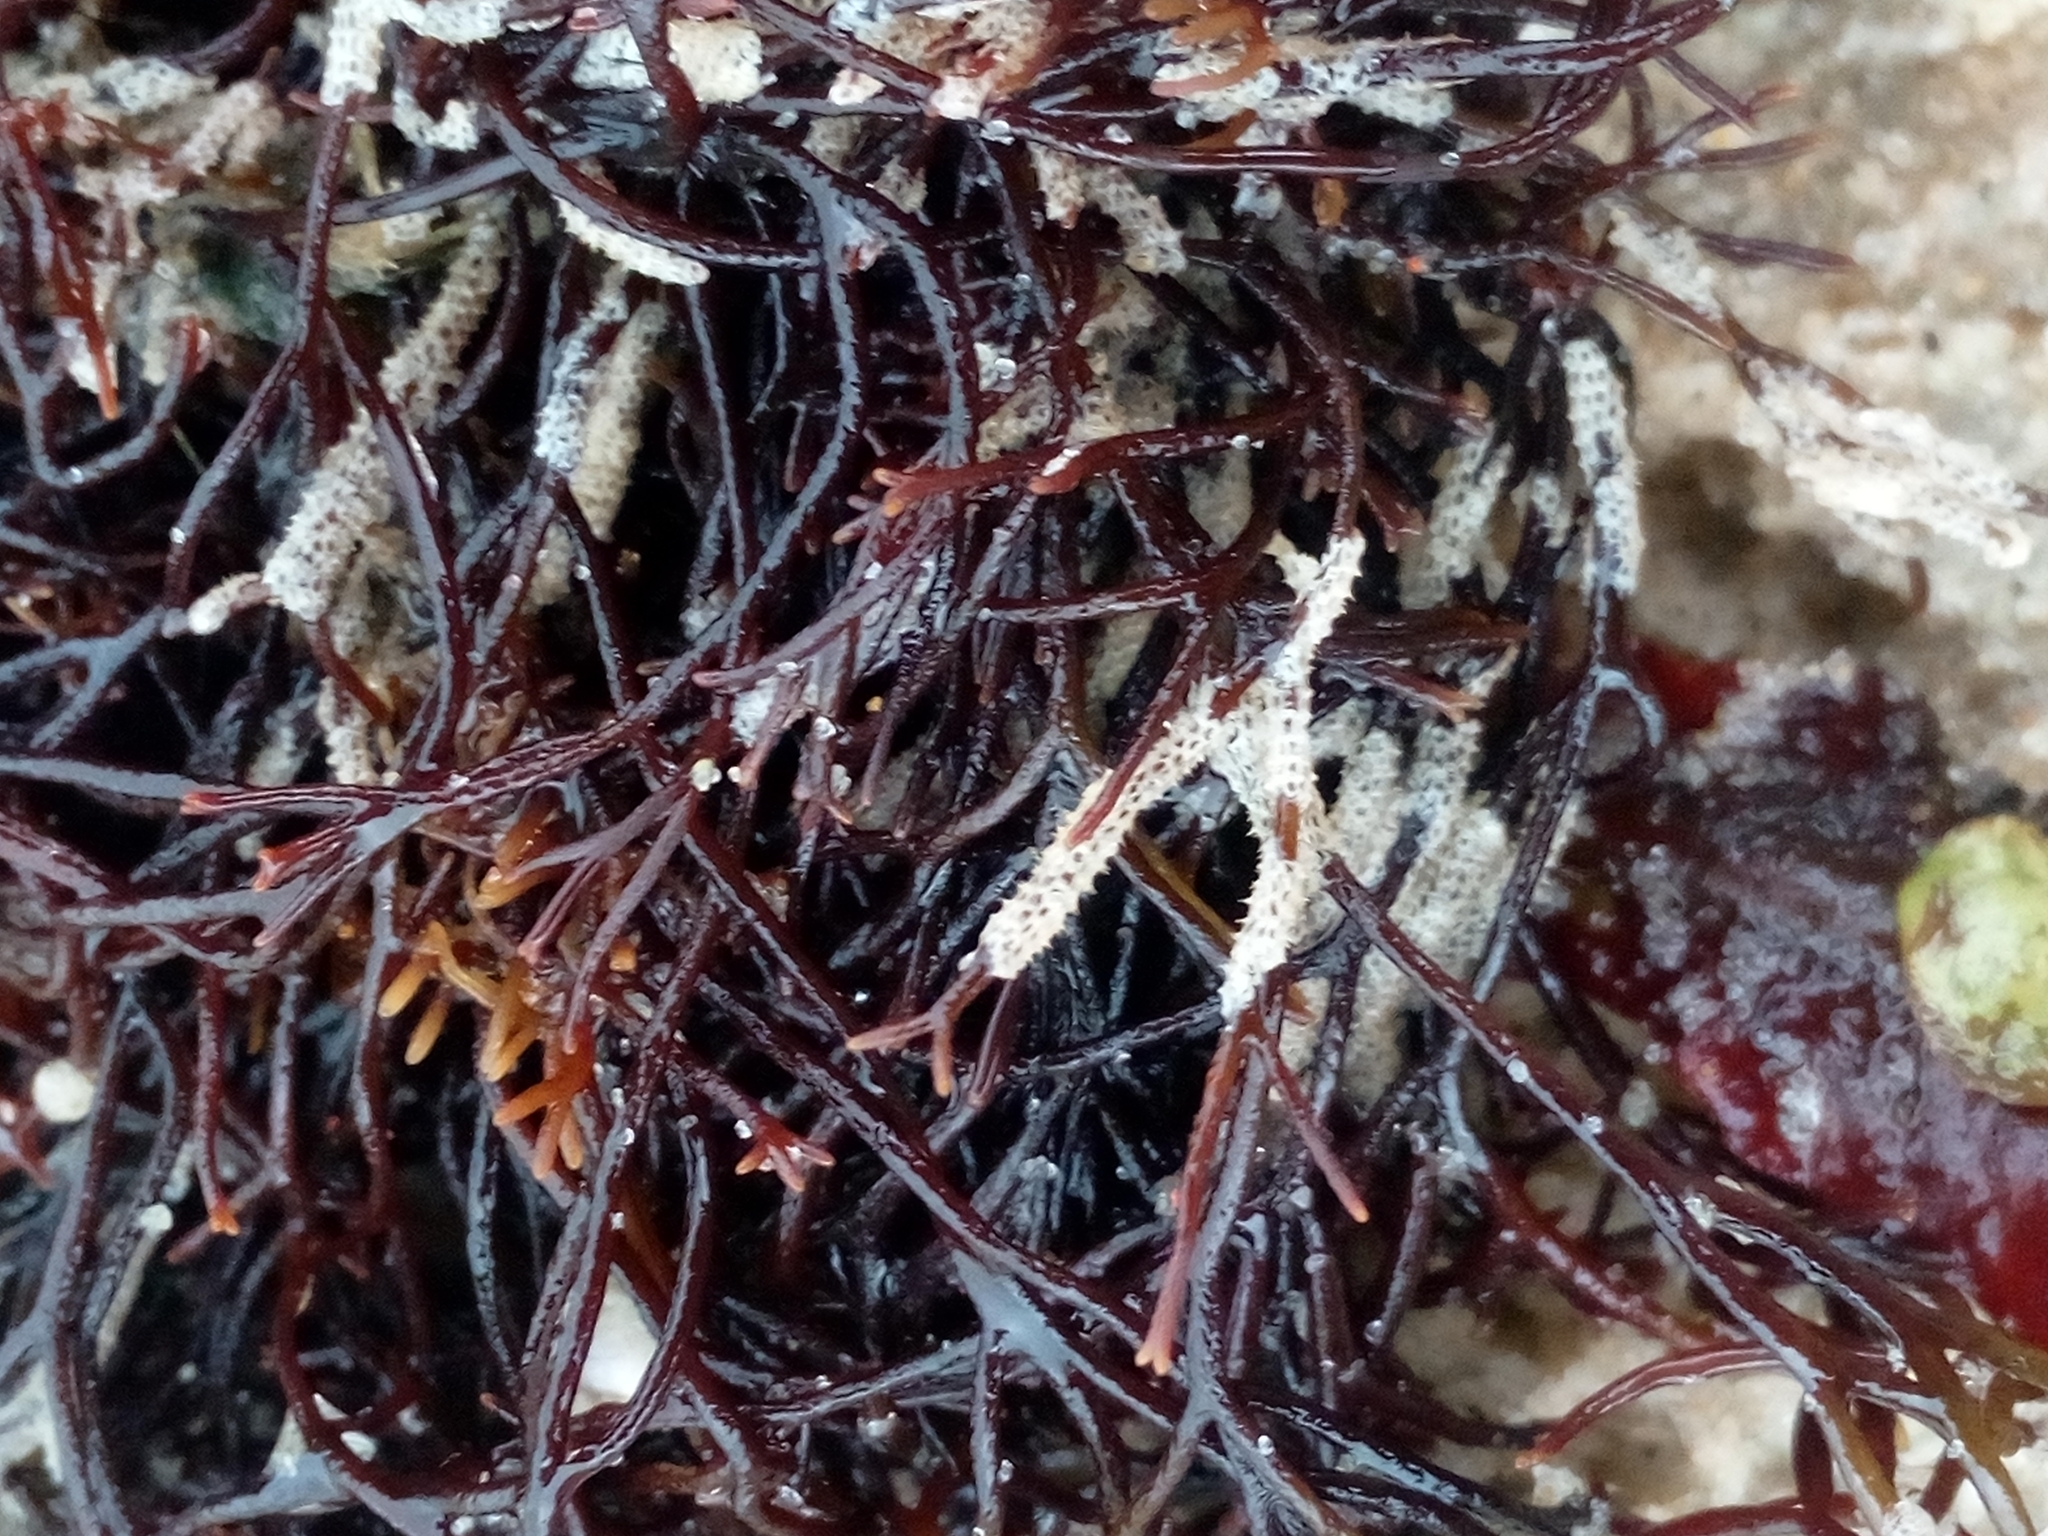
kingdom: Animalia
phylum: Bryozoa
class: Gymnolaemata
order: Cheilostomatida
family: Electridae
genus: Electra
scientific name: Electra pilosa
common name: Hairy sea-mat
